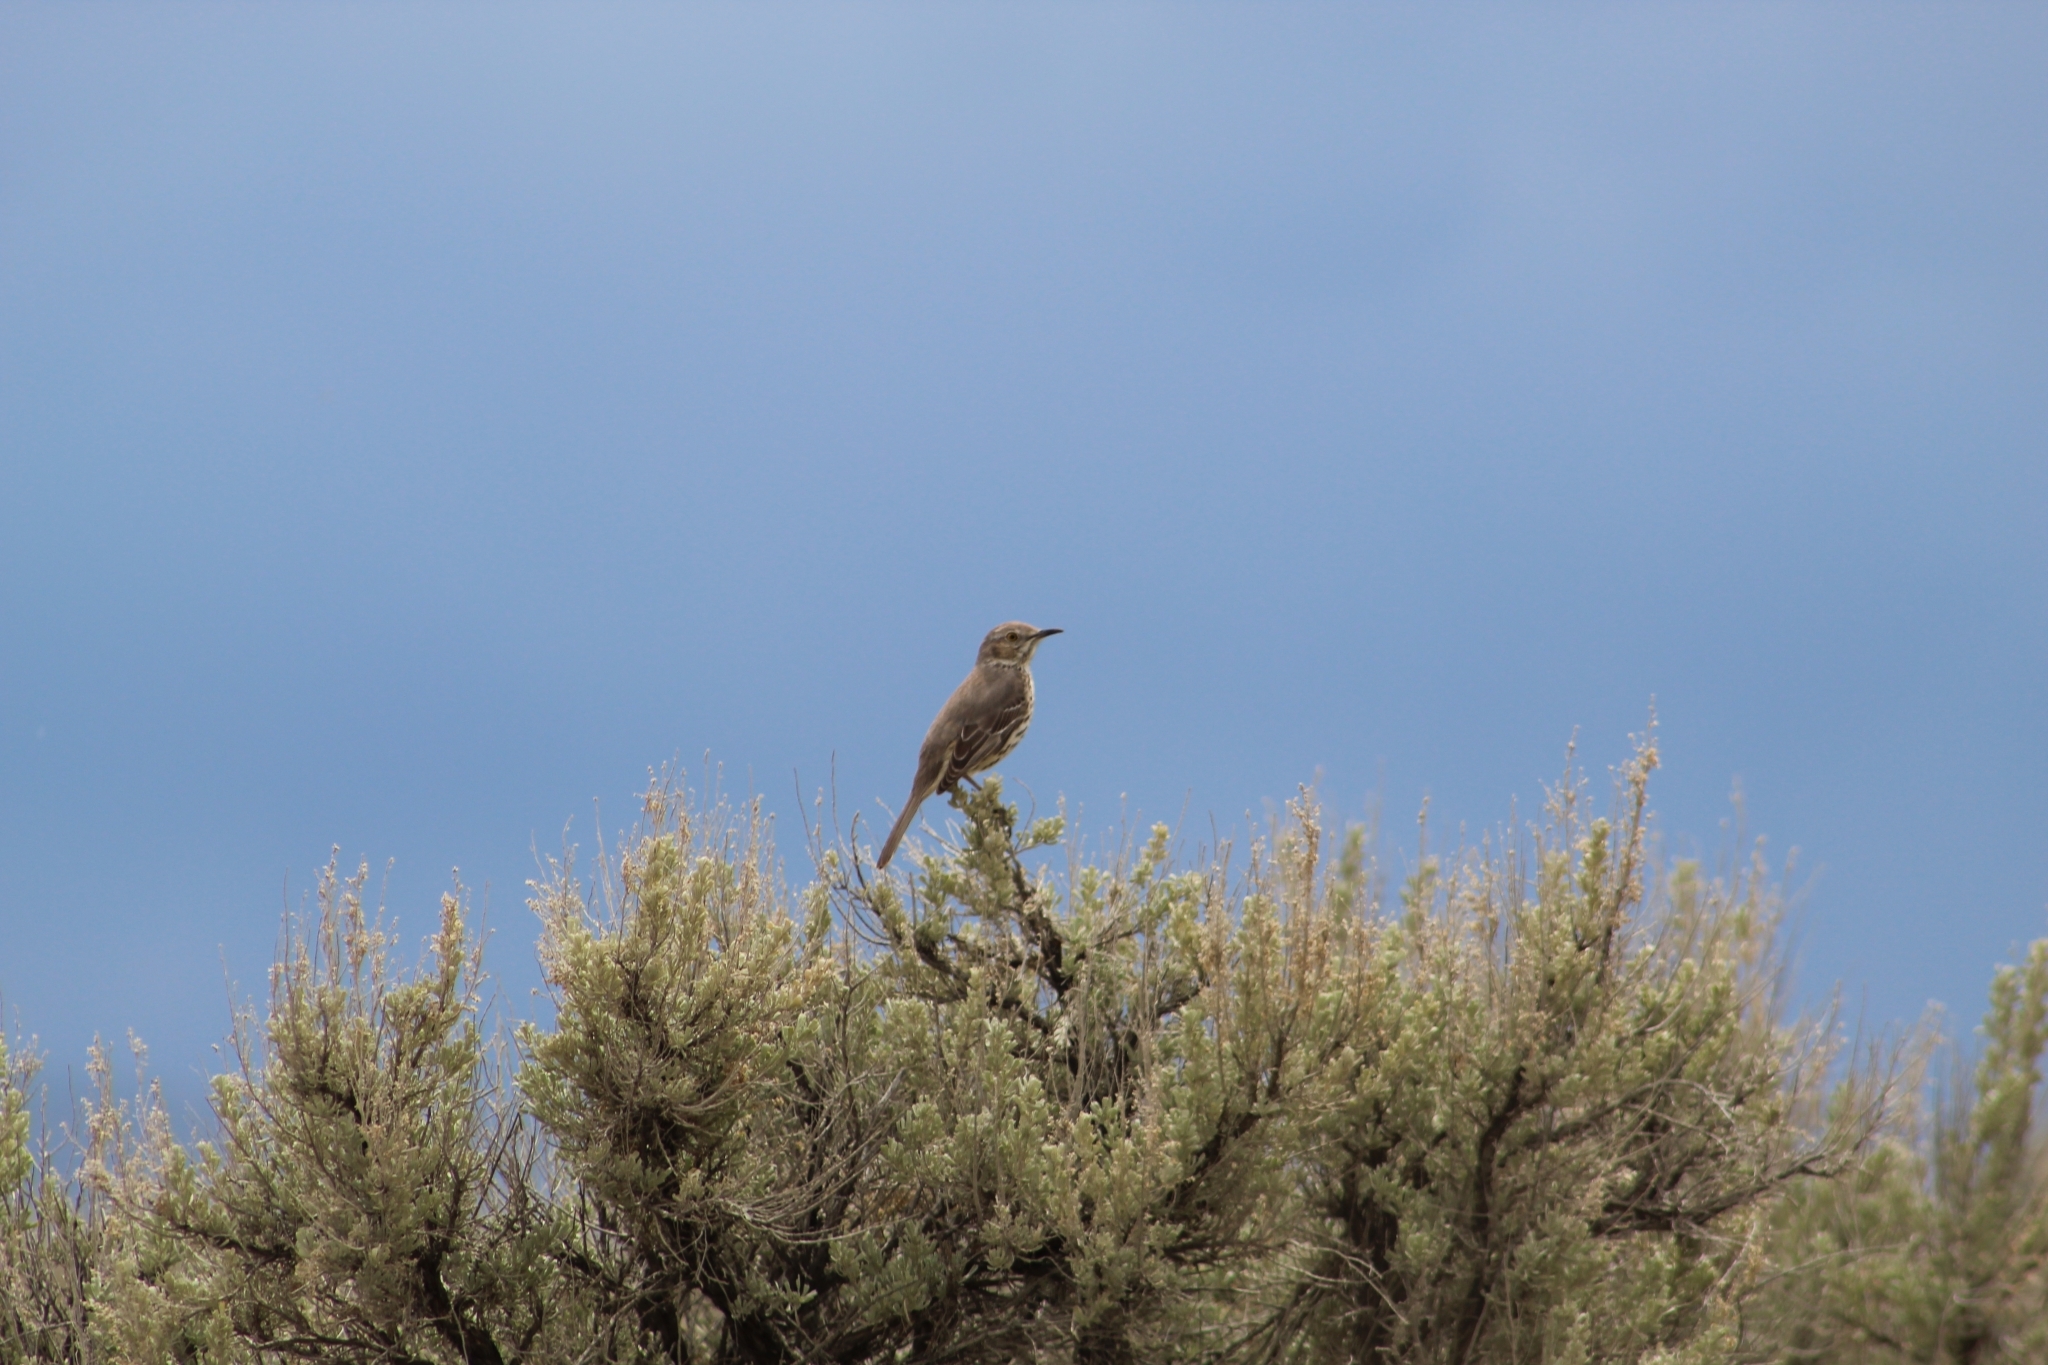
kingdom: Animalia
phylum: Chordata
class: Aves
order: Passeriformes
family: Mimidae
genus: Oreoscoptes
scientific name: Oreoscoptes montanus
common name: Sage thrasher
